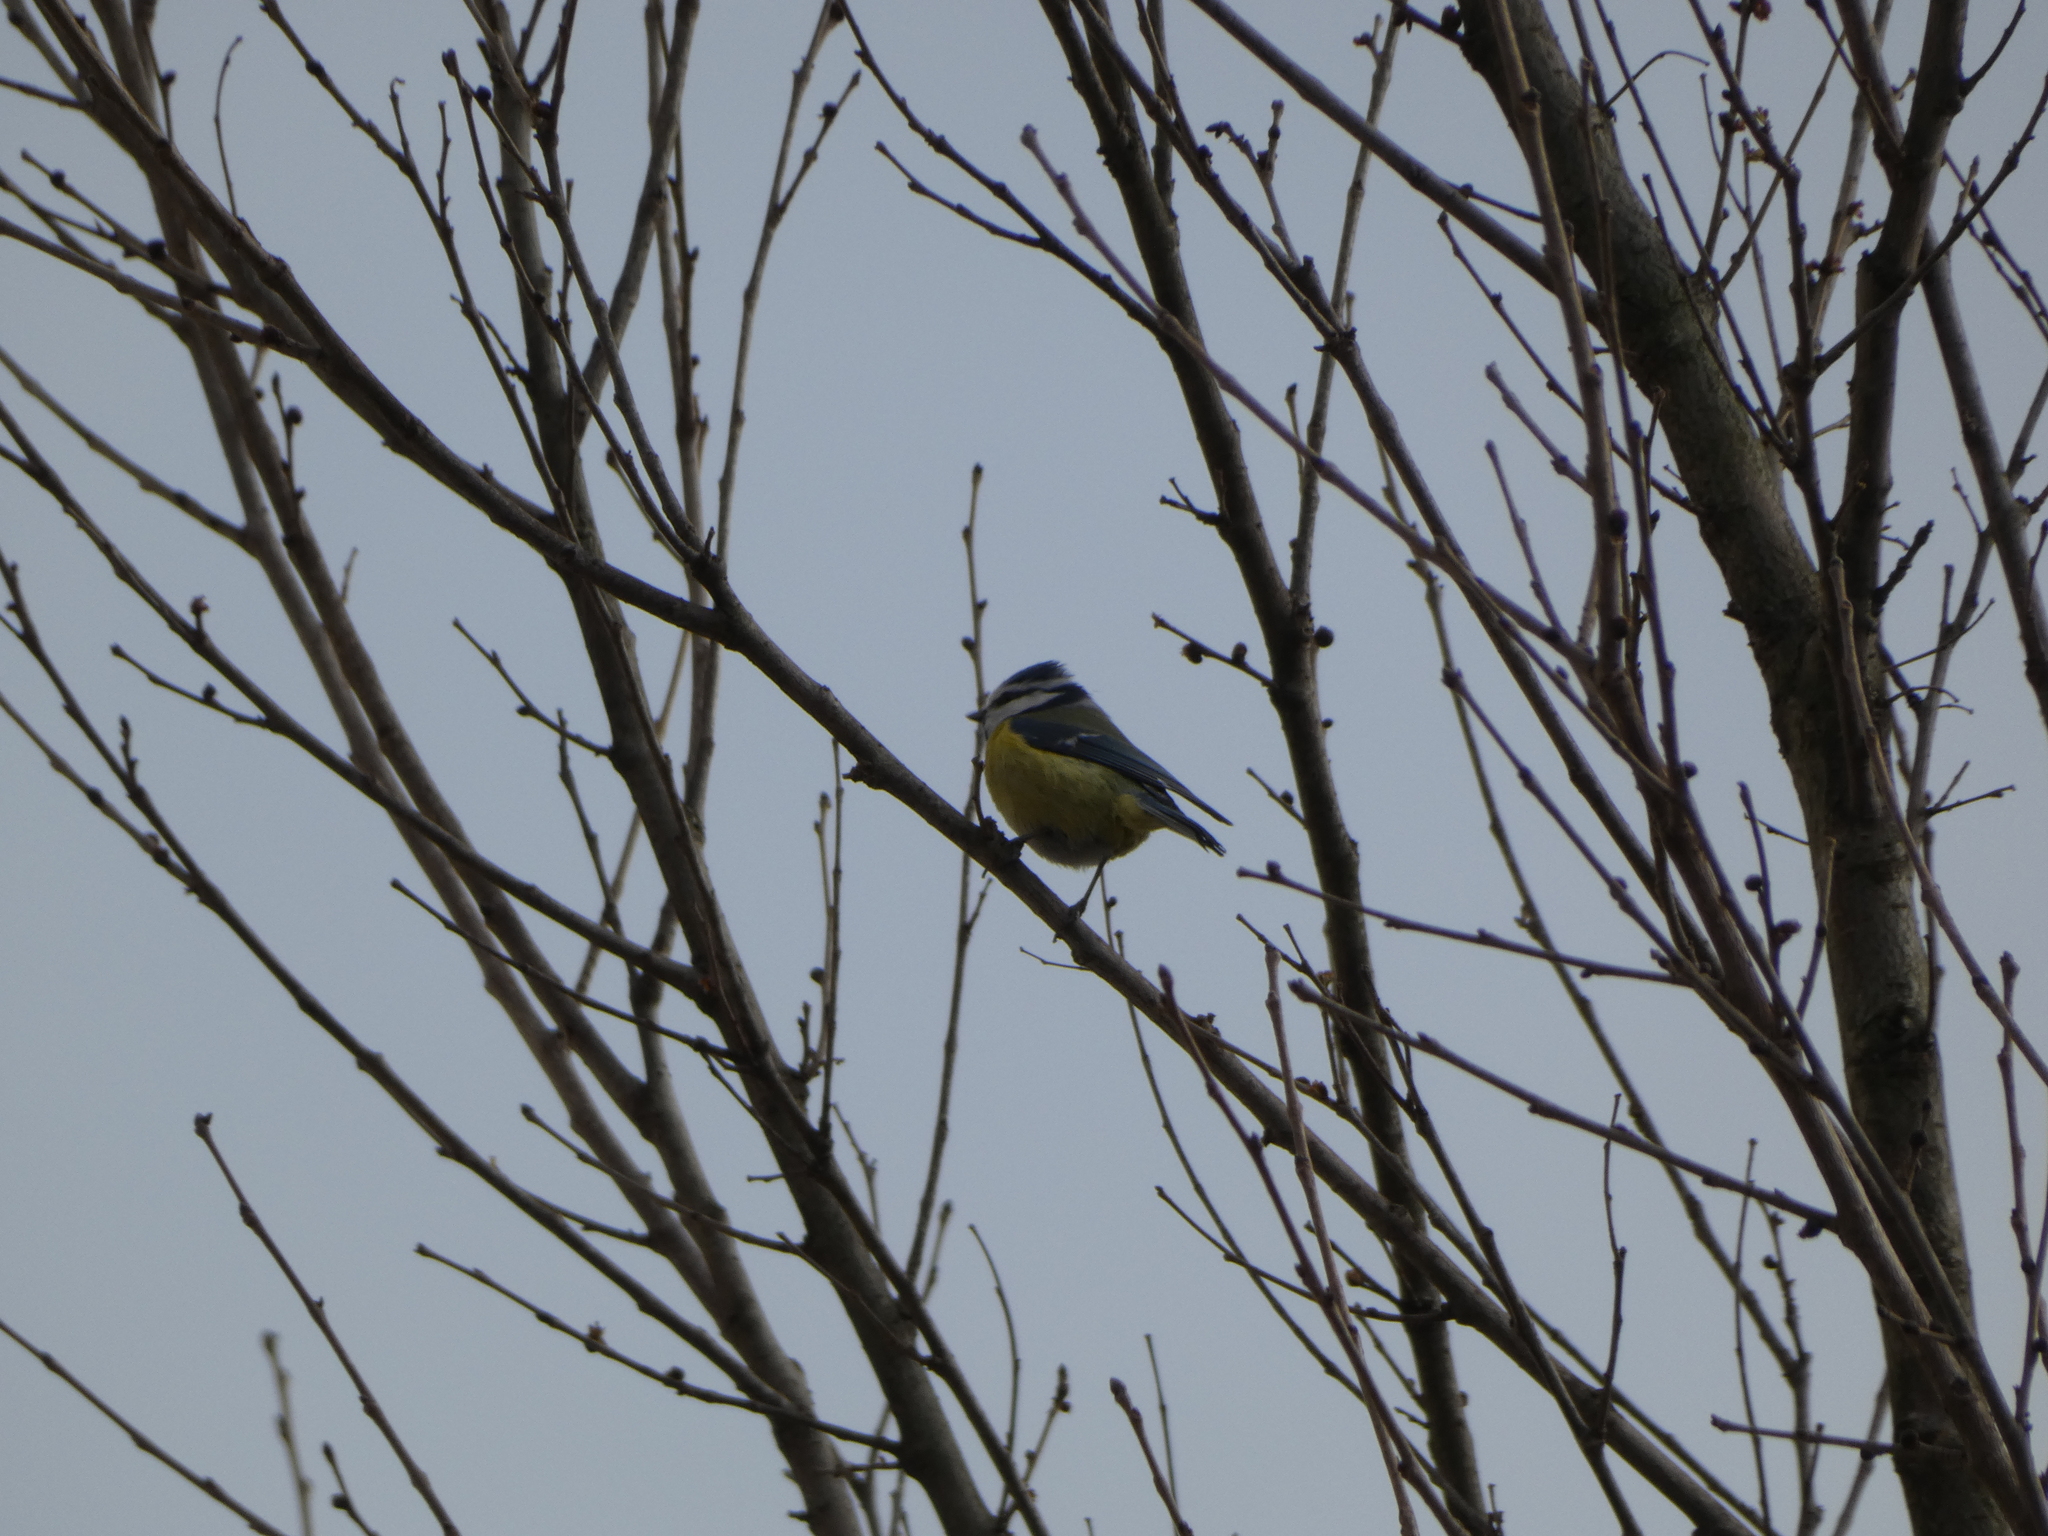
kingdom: Animalia
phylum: Chordata
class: Aves
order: Passeriformes
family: Paridae
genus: Cyanistes
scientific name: Cyanistes caeruleus
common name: Eurasian blue tit
